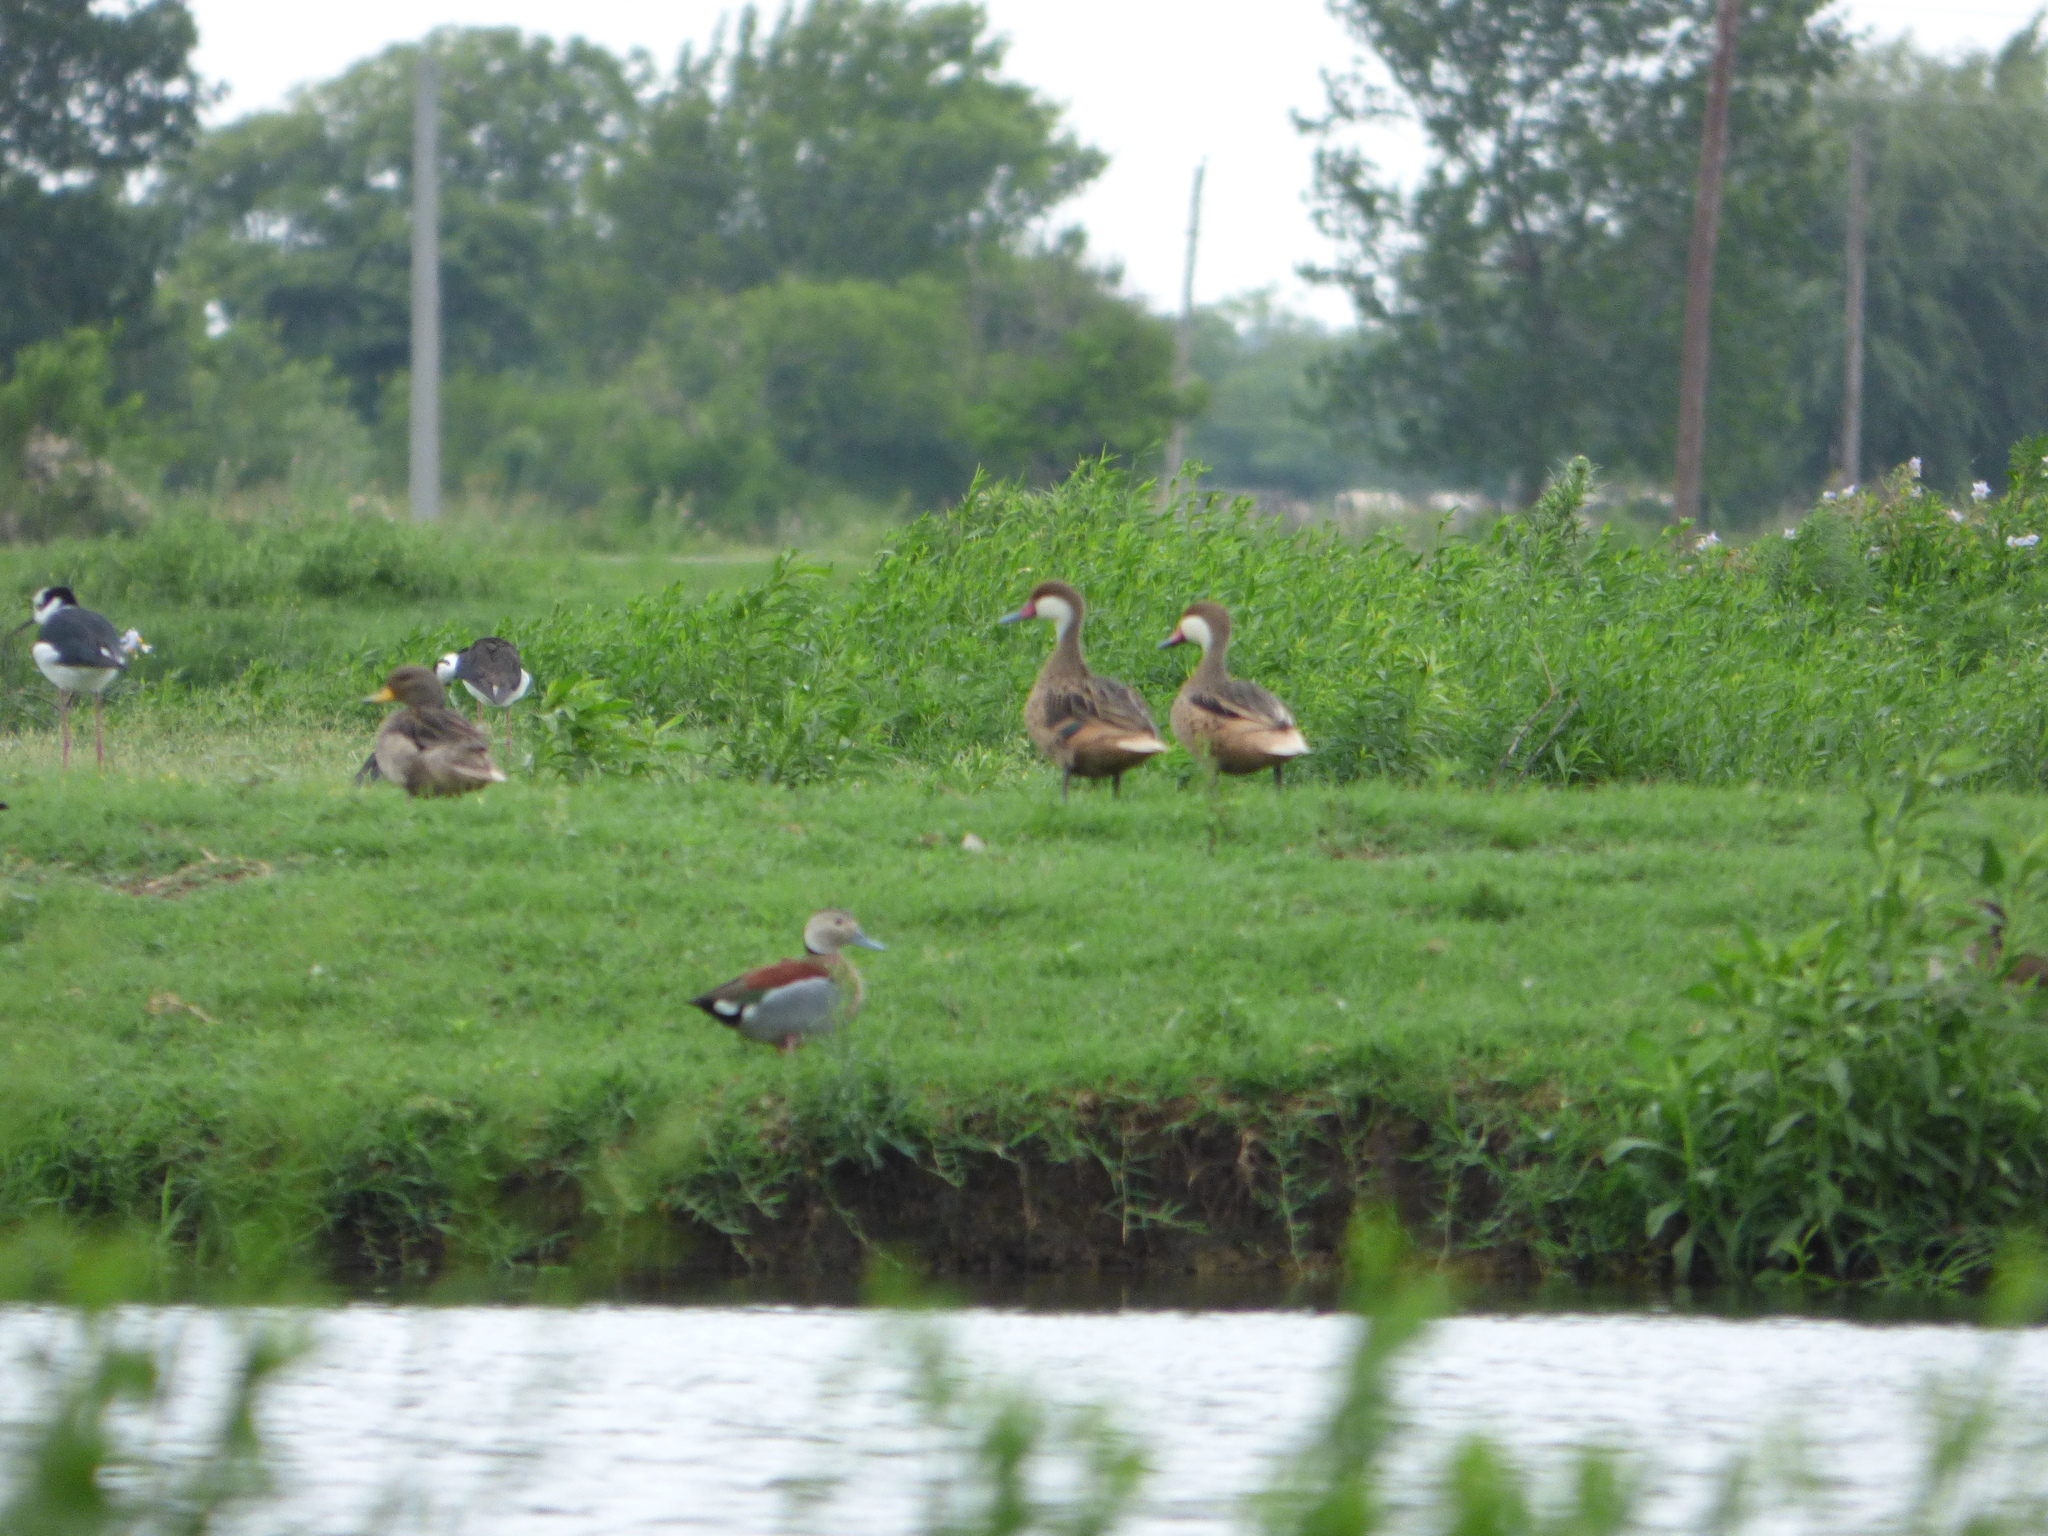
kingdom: Animalia
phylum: Chordata
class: Aves
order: Anseriformes
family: Anatidae
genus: Anas
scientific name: Anas bahamensis
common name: White-cheeked pintail
